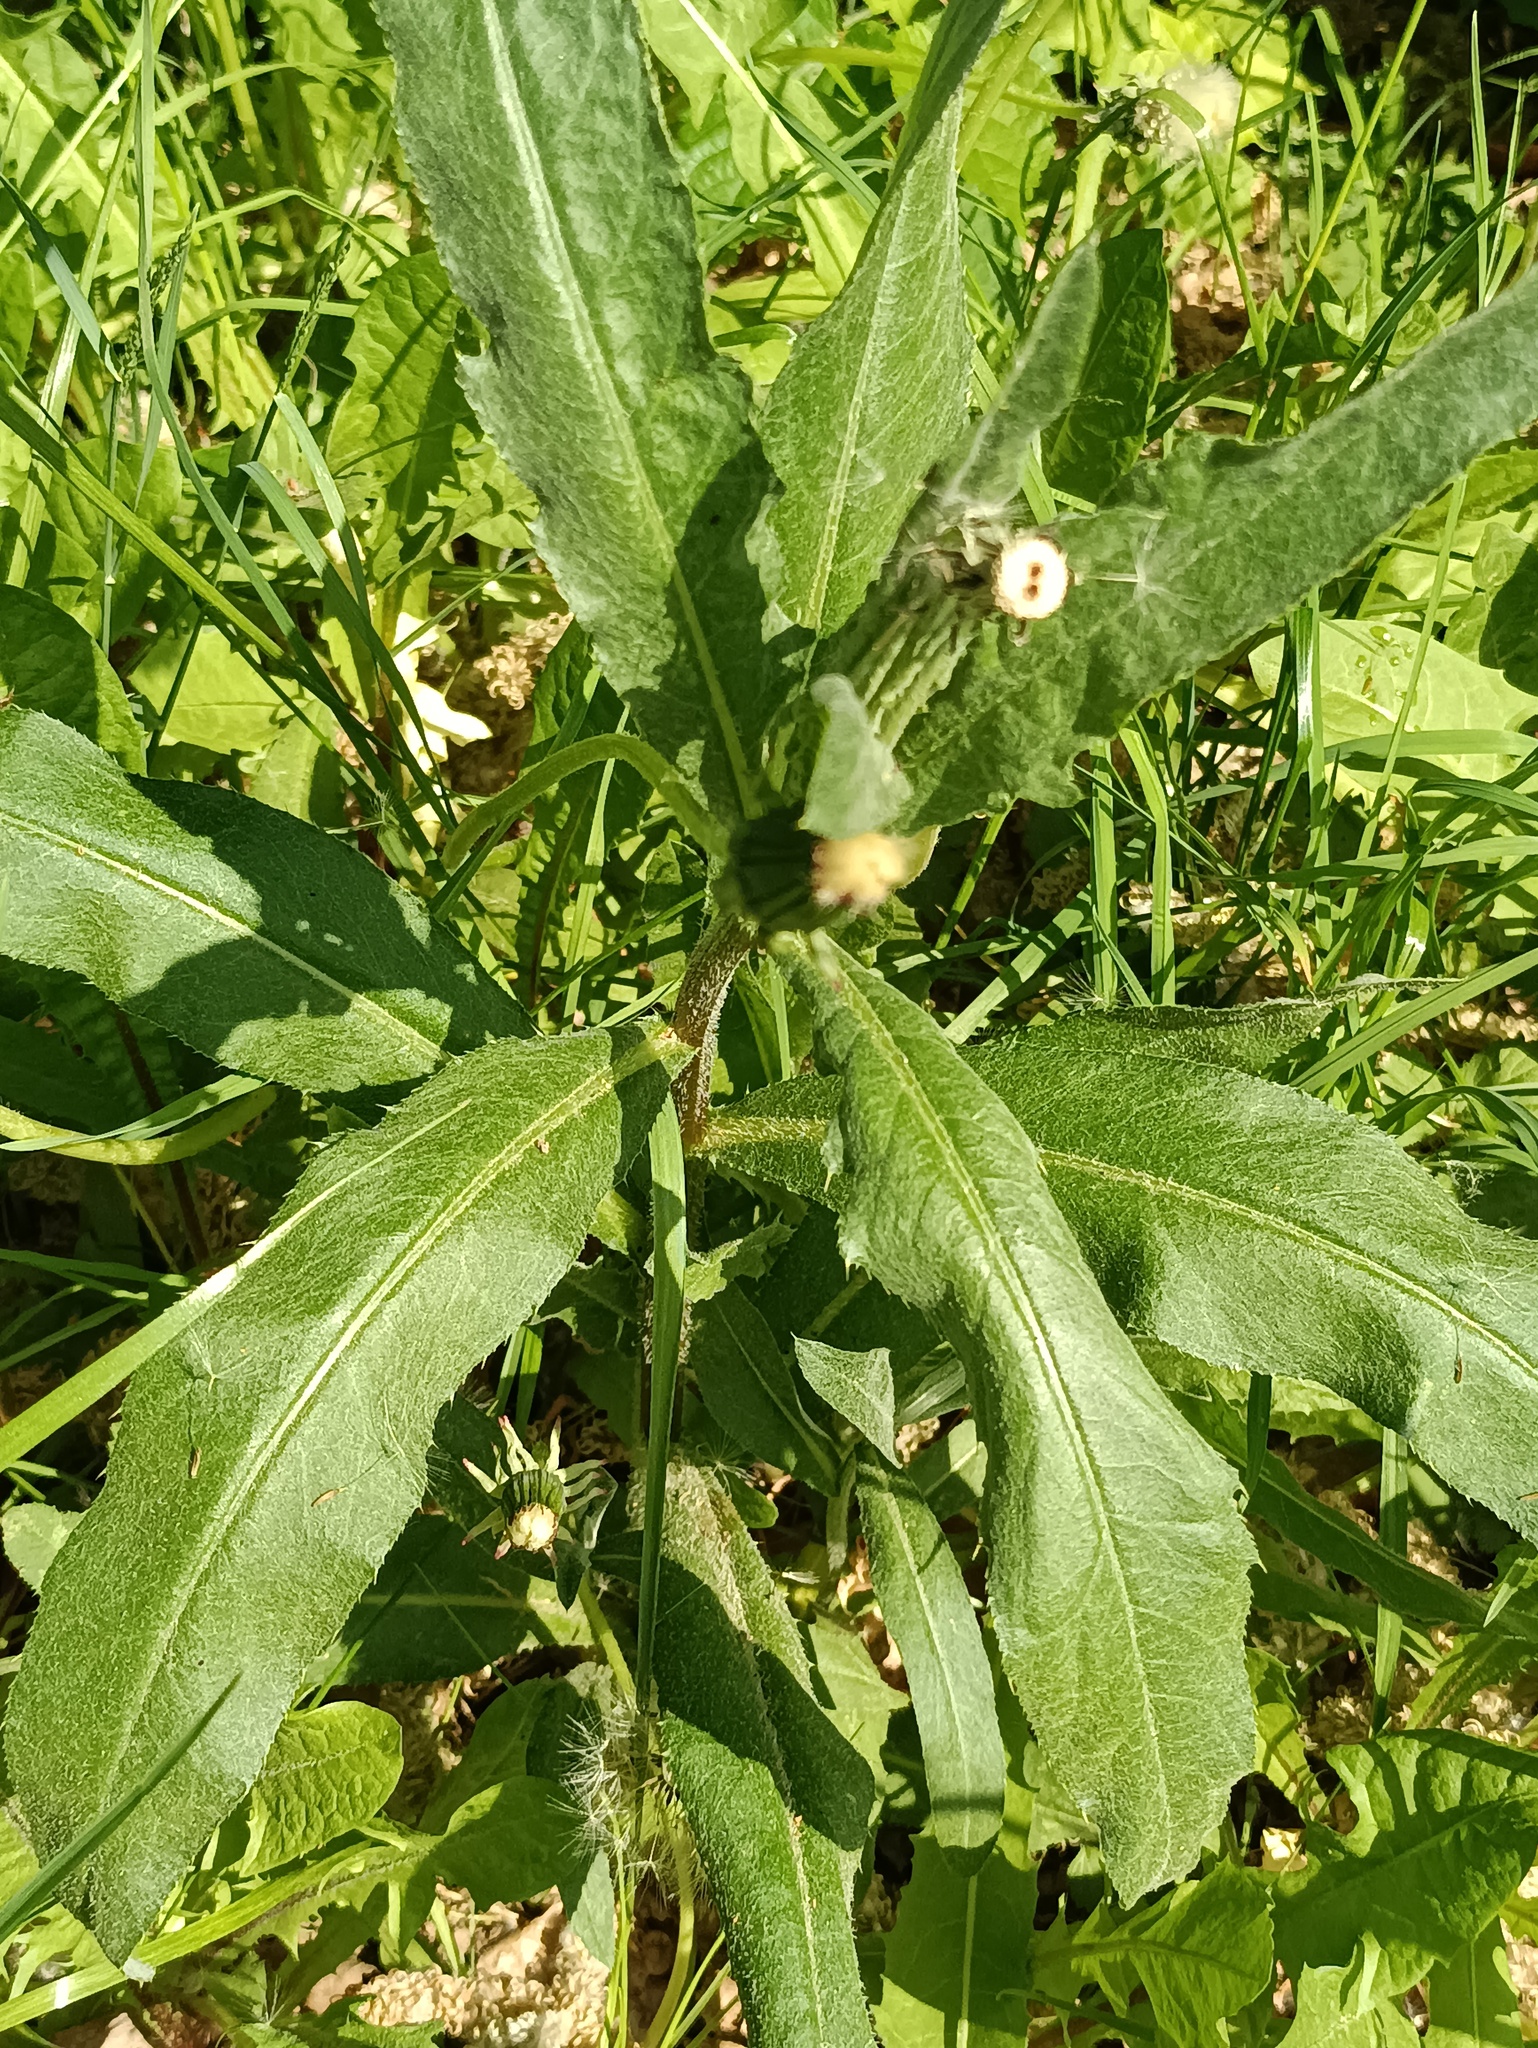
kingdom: Plantae
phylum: Tracheophyta
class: Magnoliopsida
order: Asterales
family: Asteraceae
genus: Cirsium
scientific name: Cirsium arvense
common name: Creeping thistle
